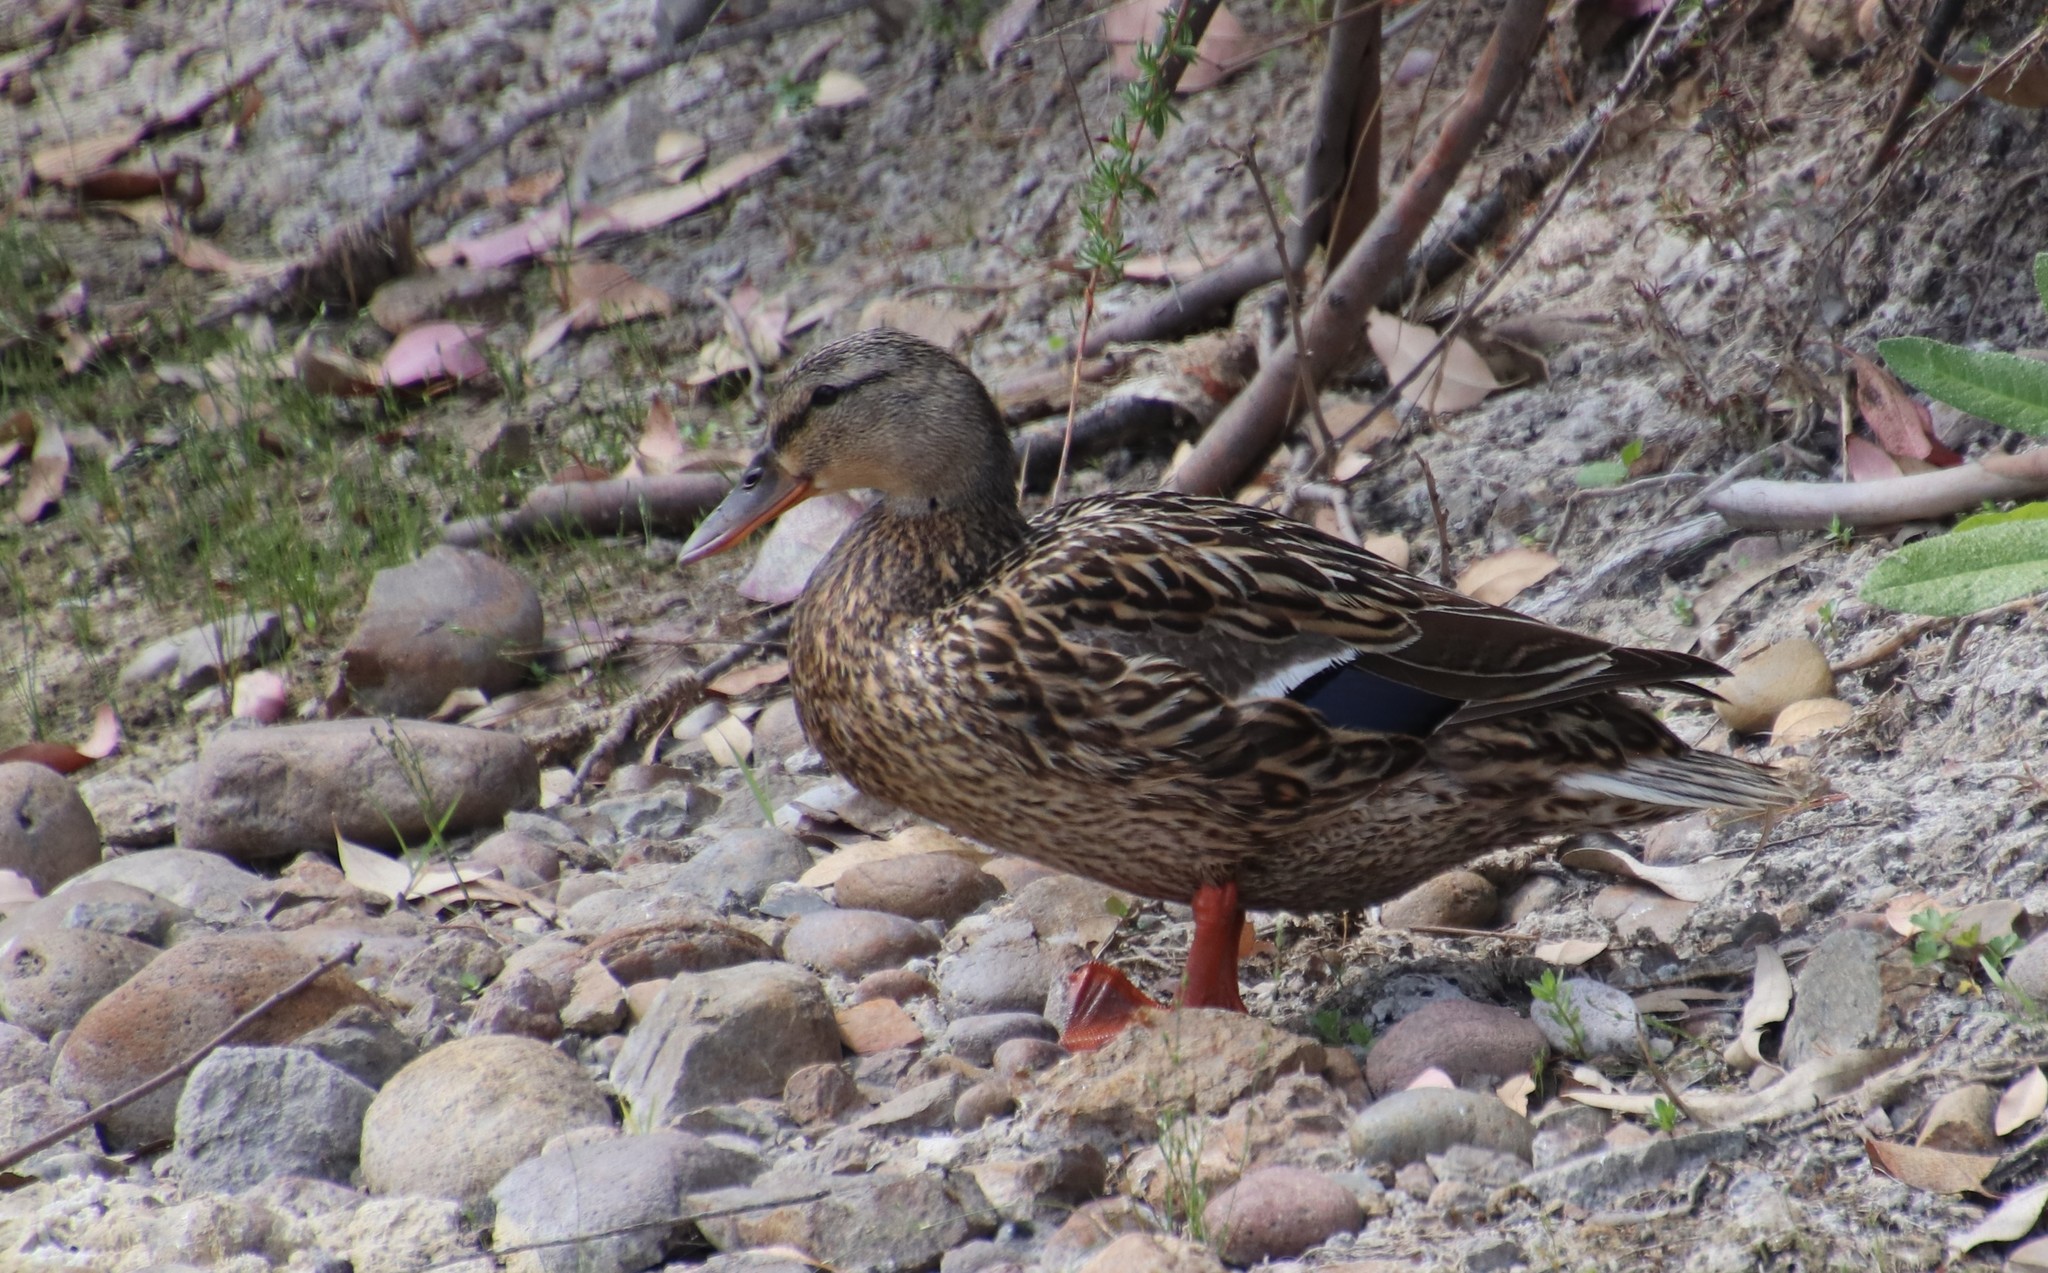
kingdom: Animalia
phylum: Chordata
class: Aves
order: Anseriformes
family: Anatidae
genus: Anas
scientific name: Anas platyrhynchos
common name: Mallard
